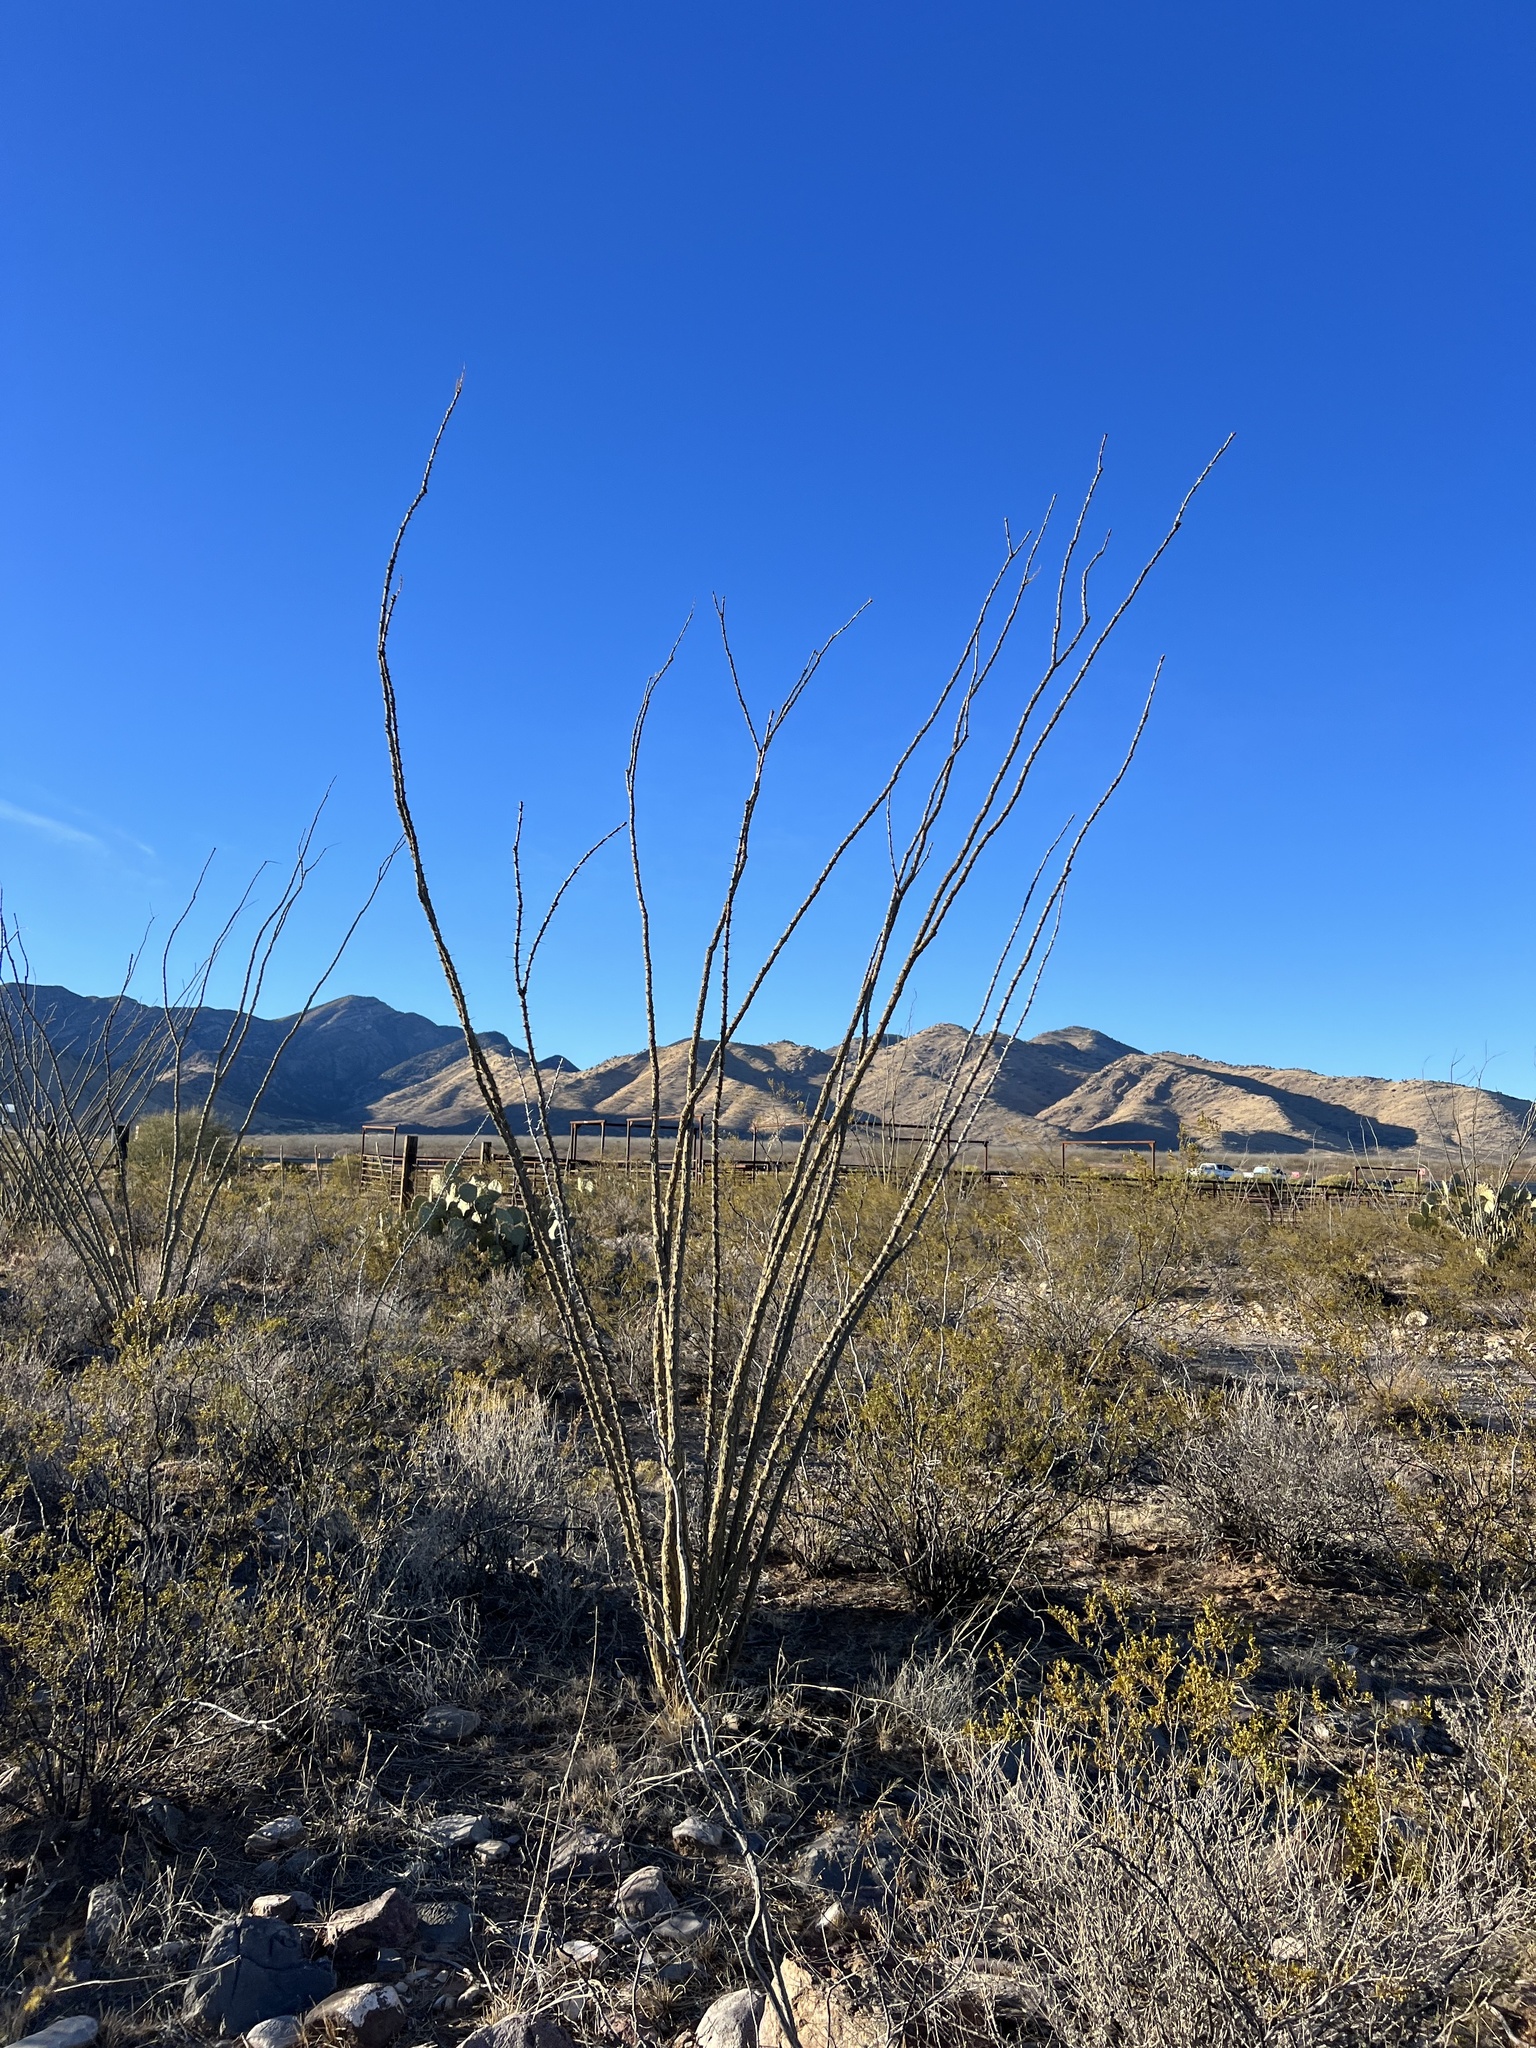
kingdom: Plantae
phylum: Tracheophyta
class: Magnoliopsida
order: Ericales
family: Fouquieriaceae
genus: Fouquieria
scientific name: Fouquieria splendens
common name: Vine-cactus
